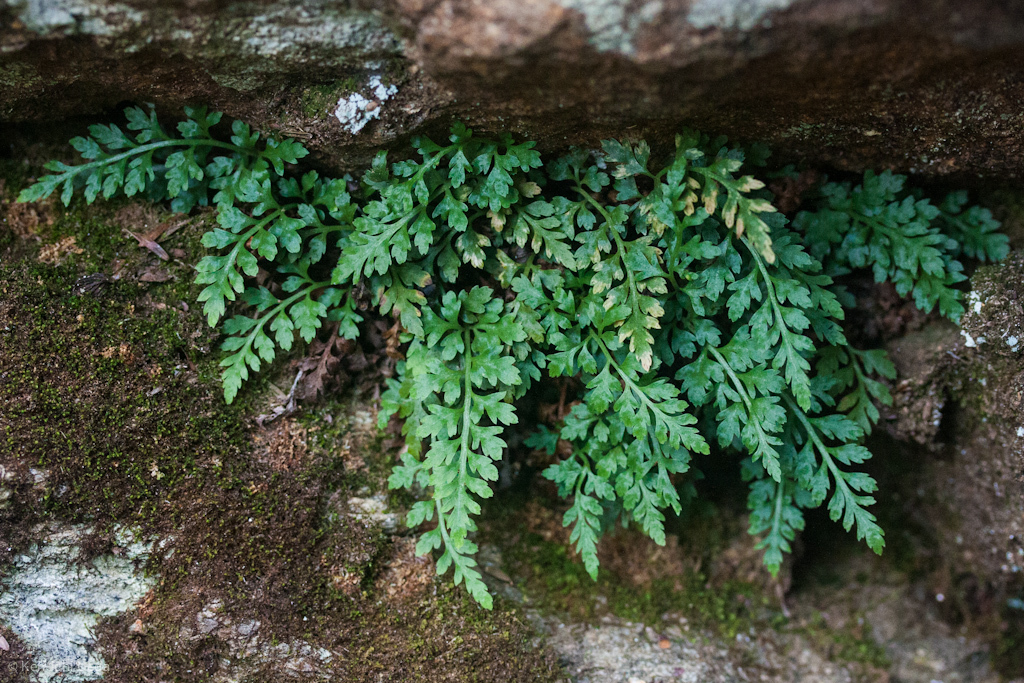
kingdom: Plantae
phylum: Tracheophyta
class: Polypodiopsida
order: Polypodiales
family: Aspleniaceae
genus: Asplenium
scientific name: Asplenium montanum
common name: Mountain spleenwort
